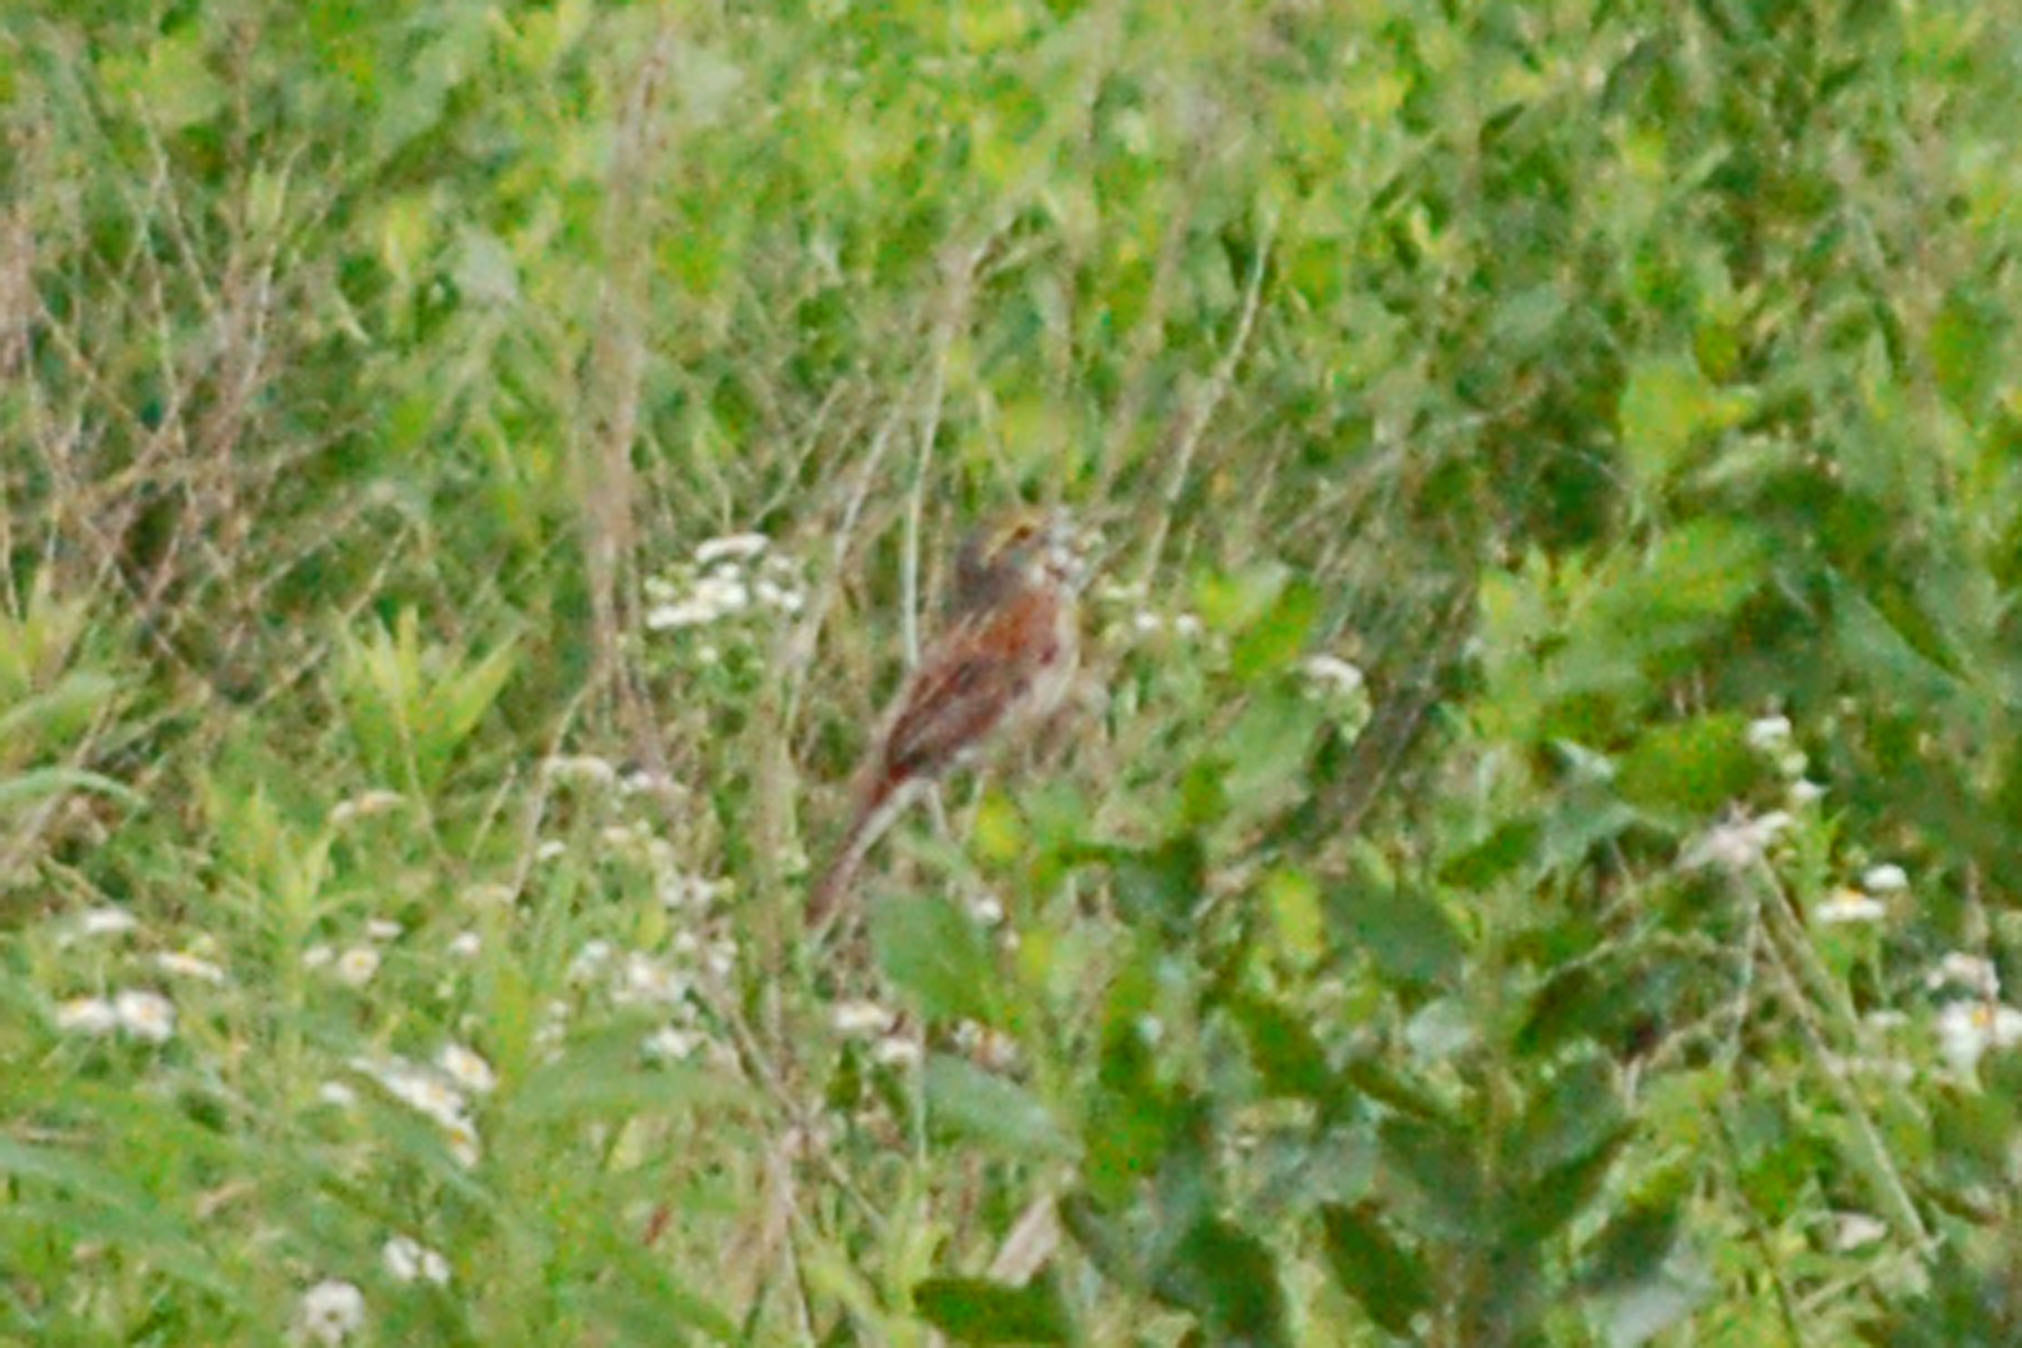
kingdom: Animalia
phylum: Chordata
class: Aves
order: Passeriformes
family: Cardinalidae
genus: Spiza
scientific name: Spiza americana
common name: Dickcissel
